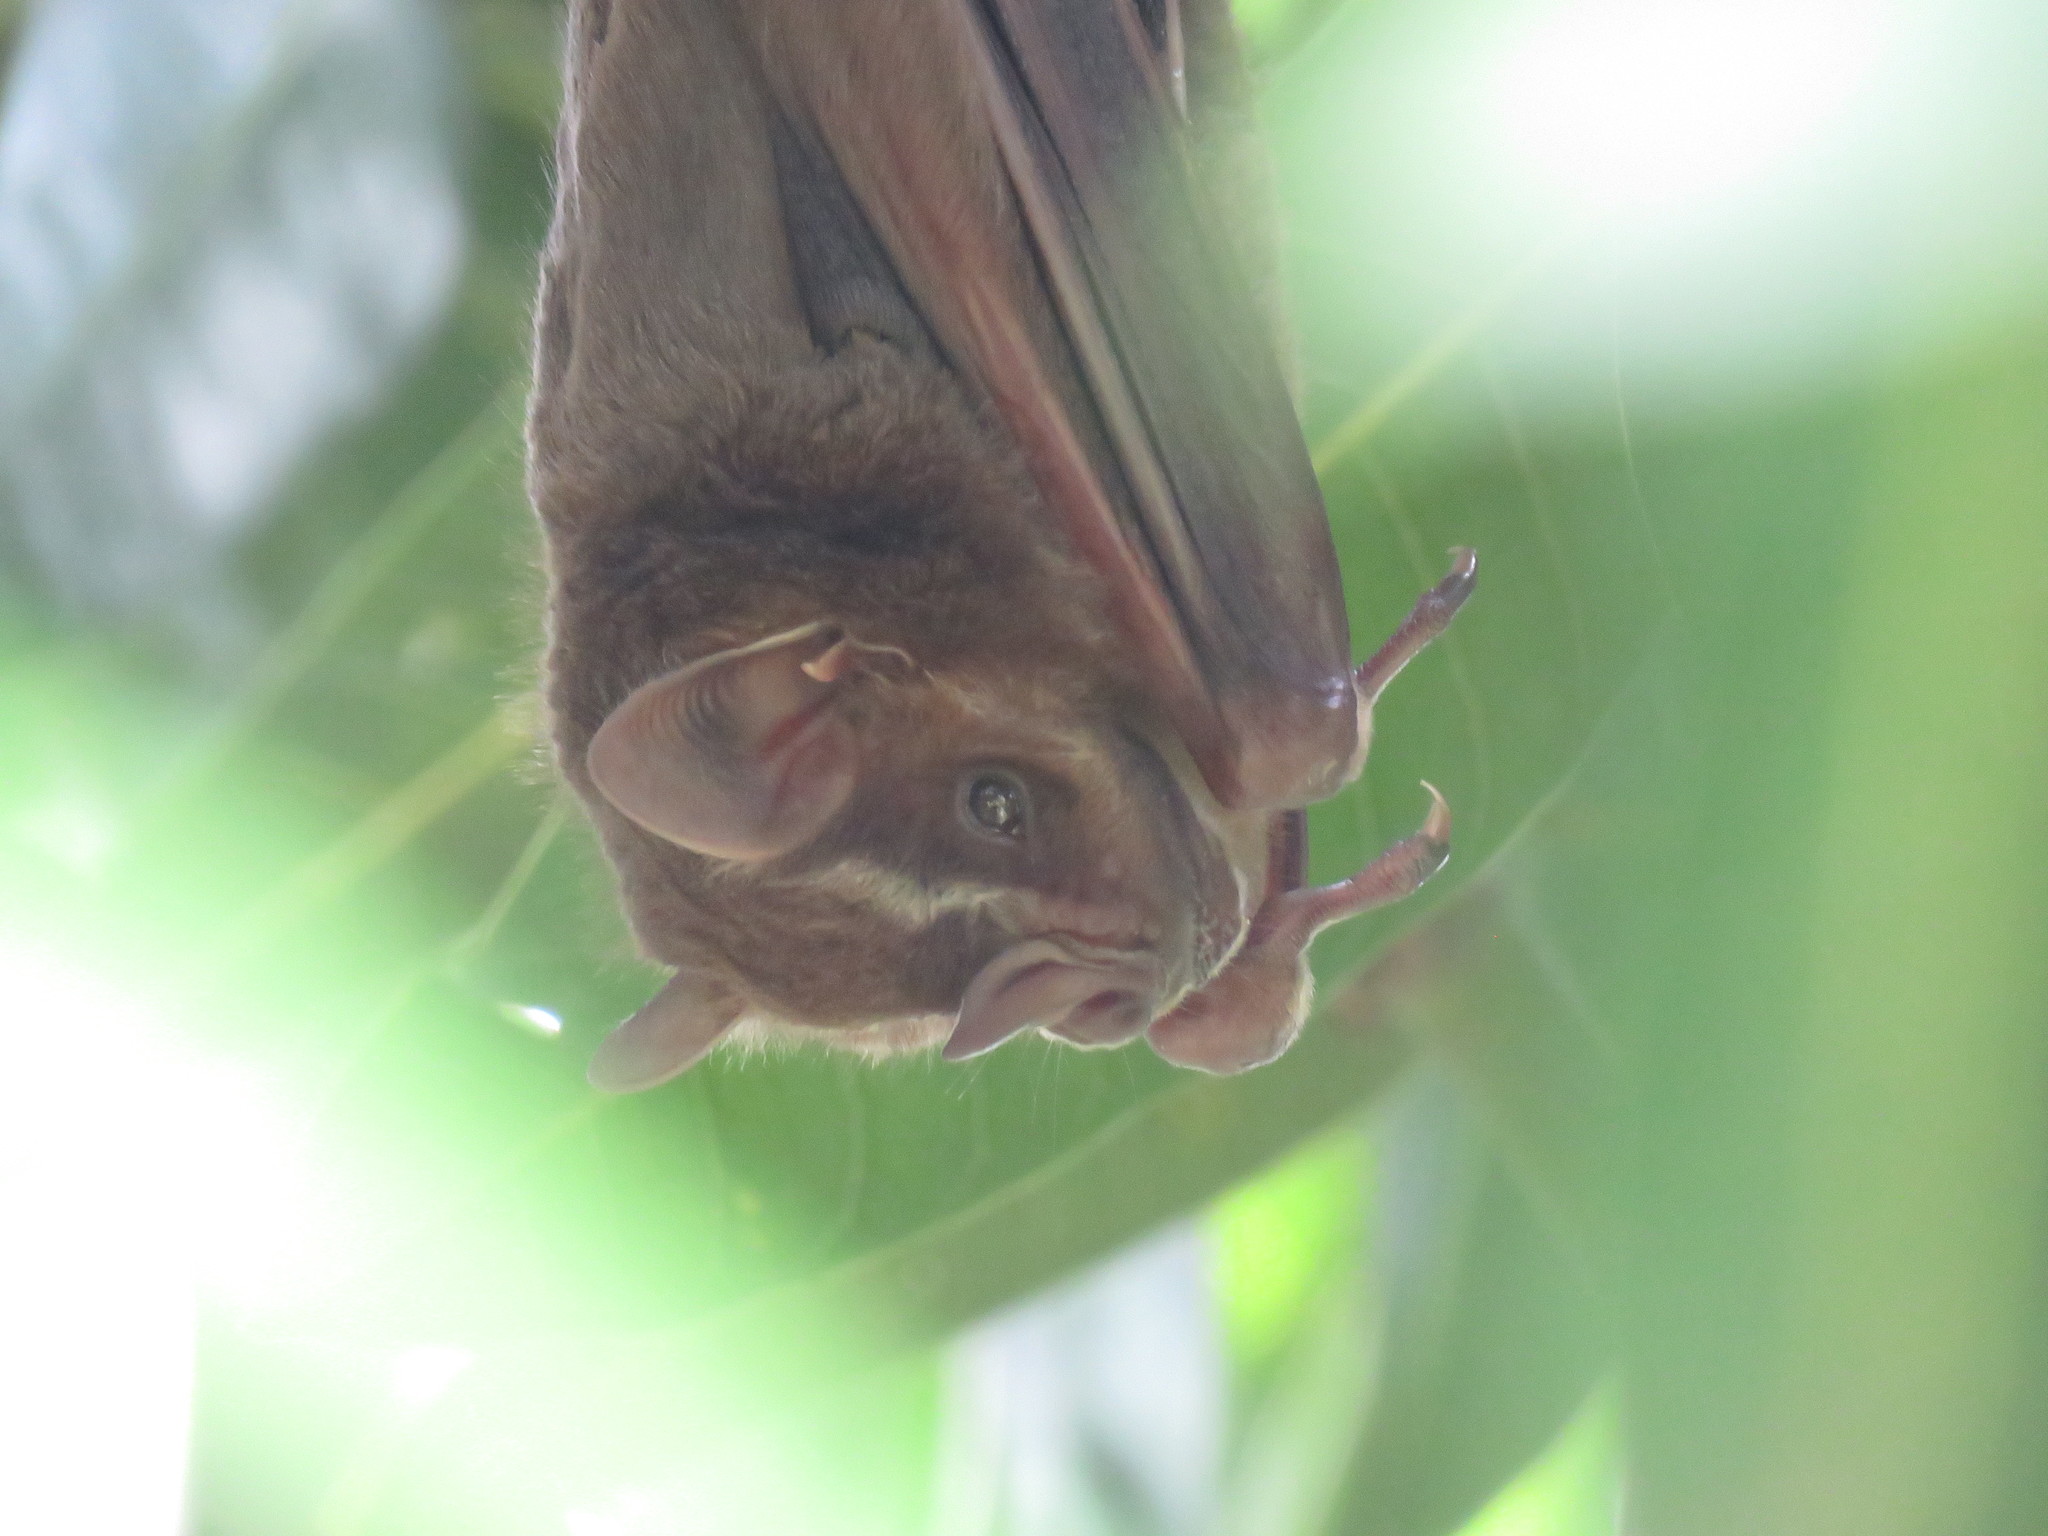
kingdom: Animalia
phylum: Chordata
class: Mammalia
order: Chiroptera
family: Phyllostomidae
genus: Artibeus
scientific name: Artibeus lituratus
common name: Great fruit-eating bat
